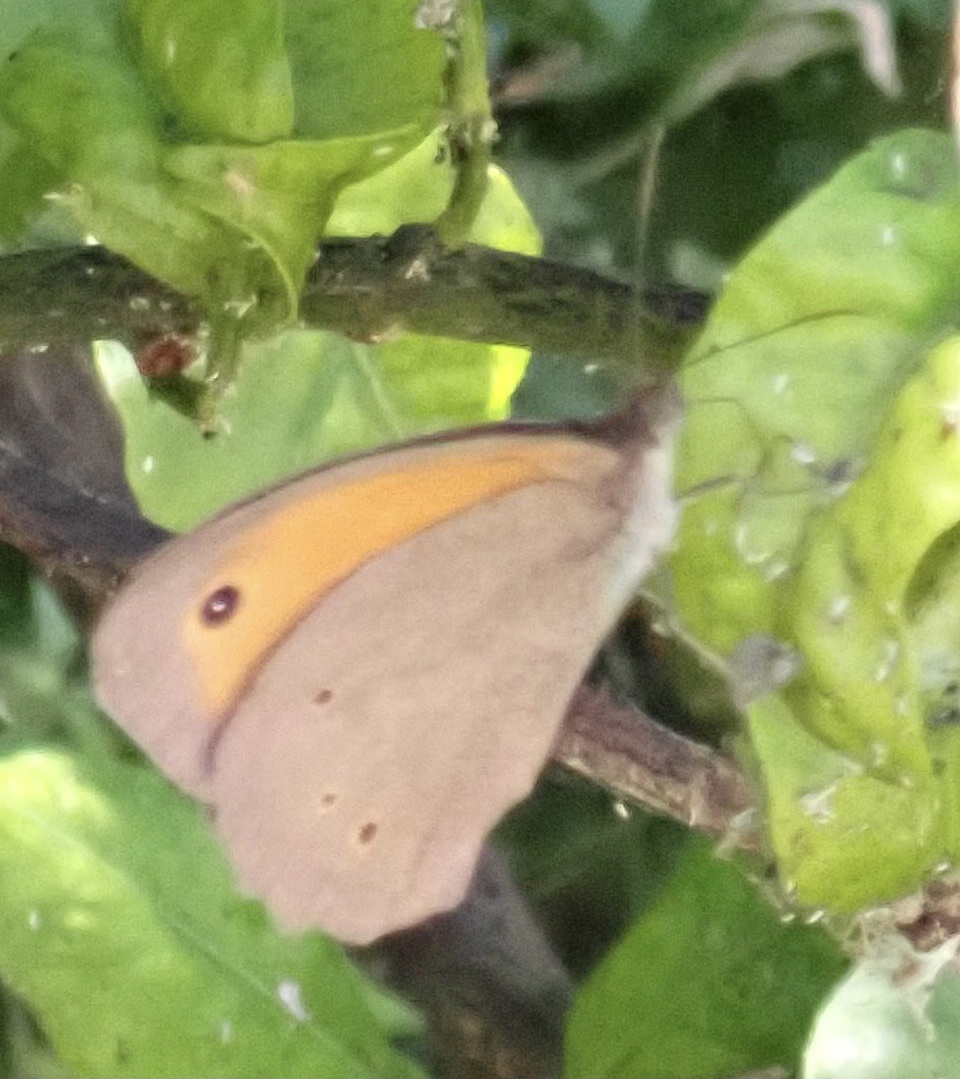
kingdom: Animalia
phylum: Arthropoda
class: Insecta
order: Lepidoptera
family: Nymphalidae
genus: Maniola
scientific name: Maniola jurtina
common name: Meadow brown
